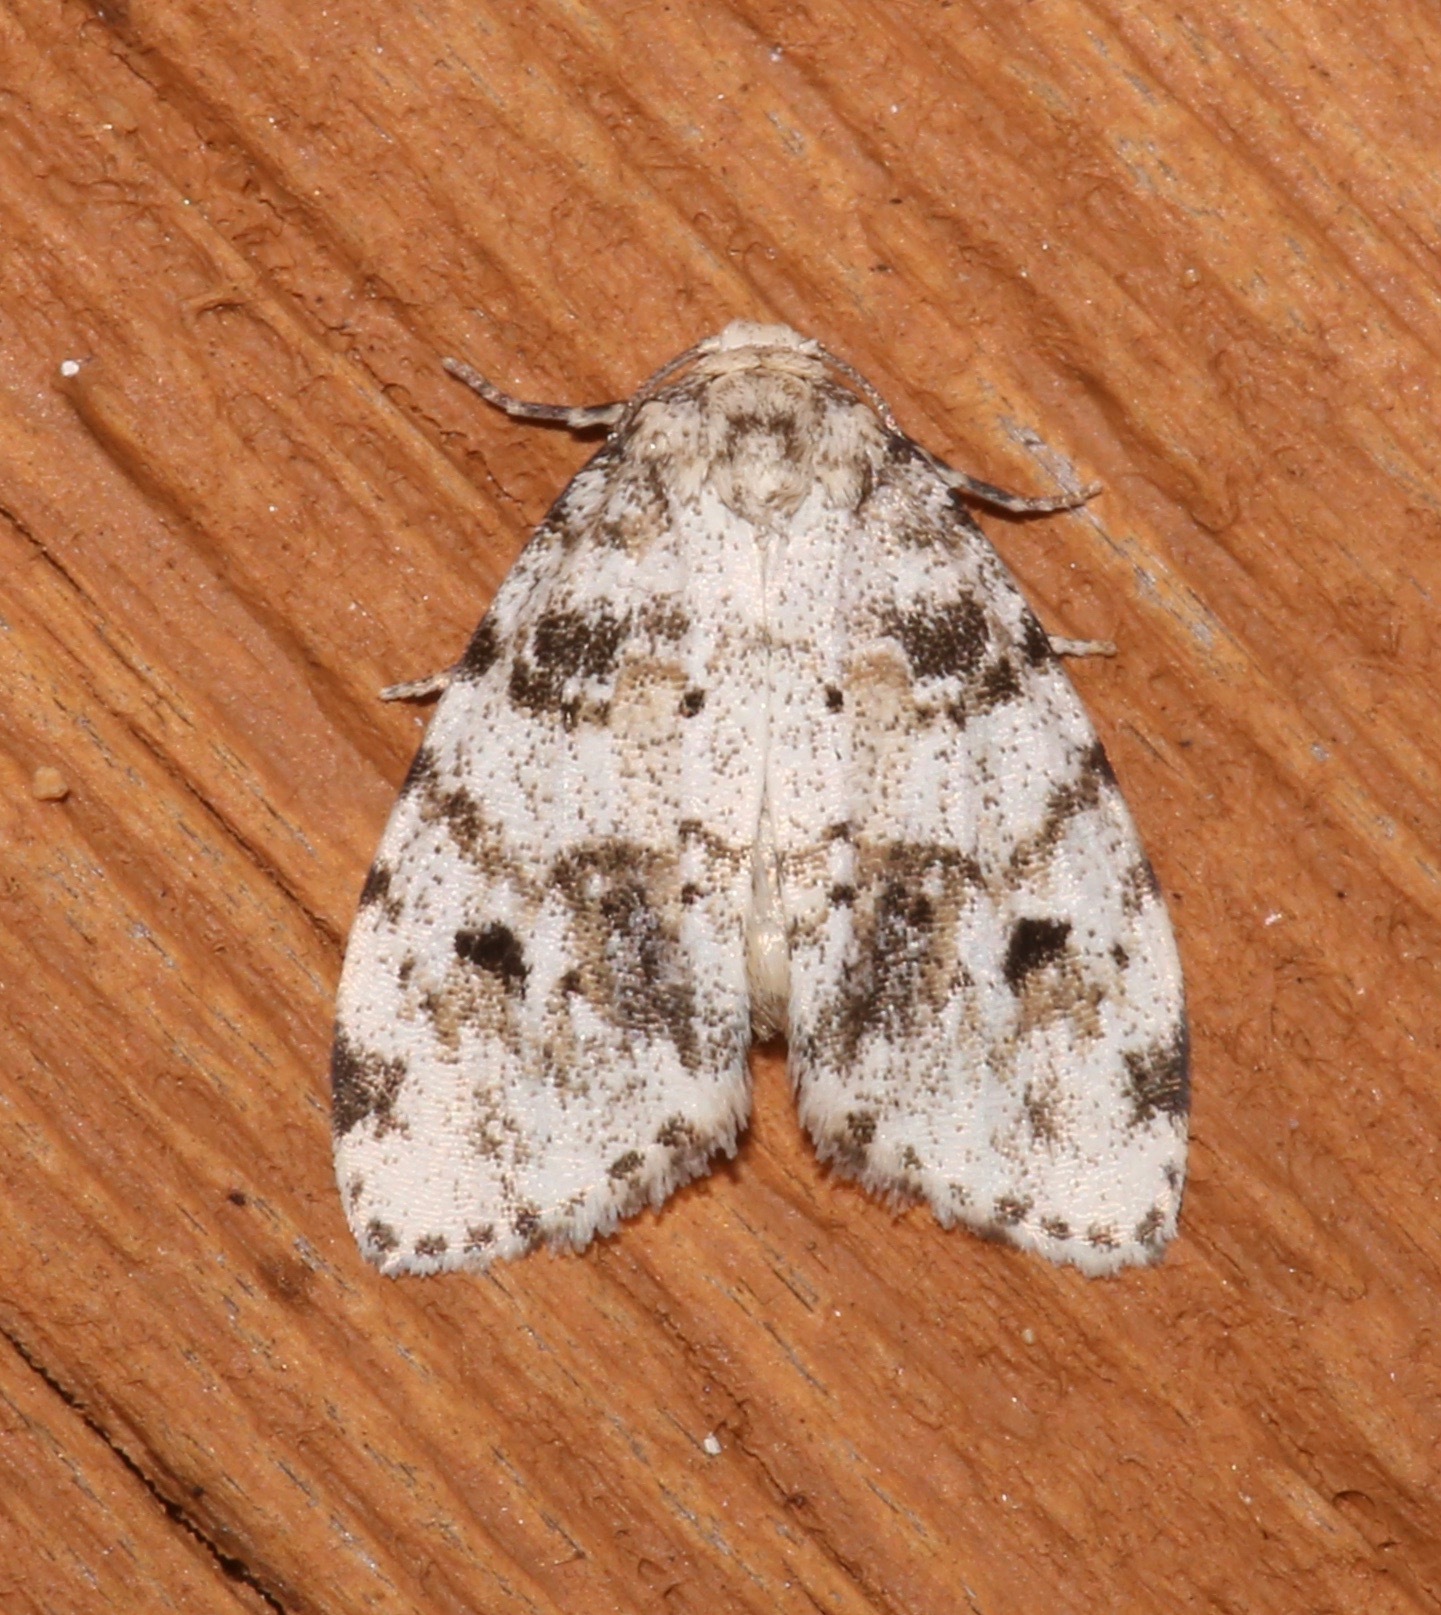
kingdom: Animalia
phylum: Arthropoda
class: Insecta
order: Lepidoptera
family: Erebidae
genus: Clemensia
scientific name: Clemensia ochreata
